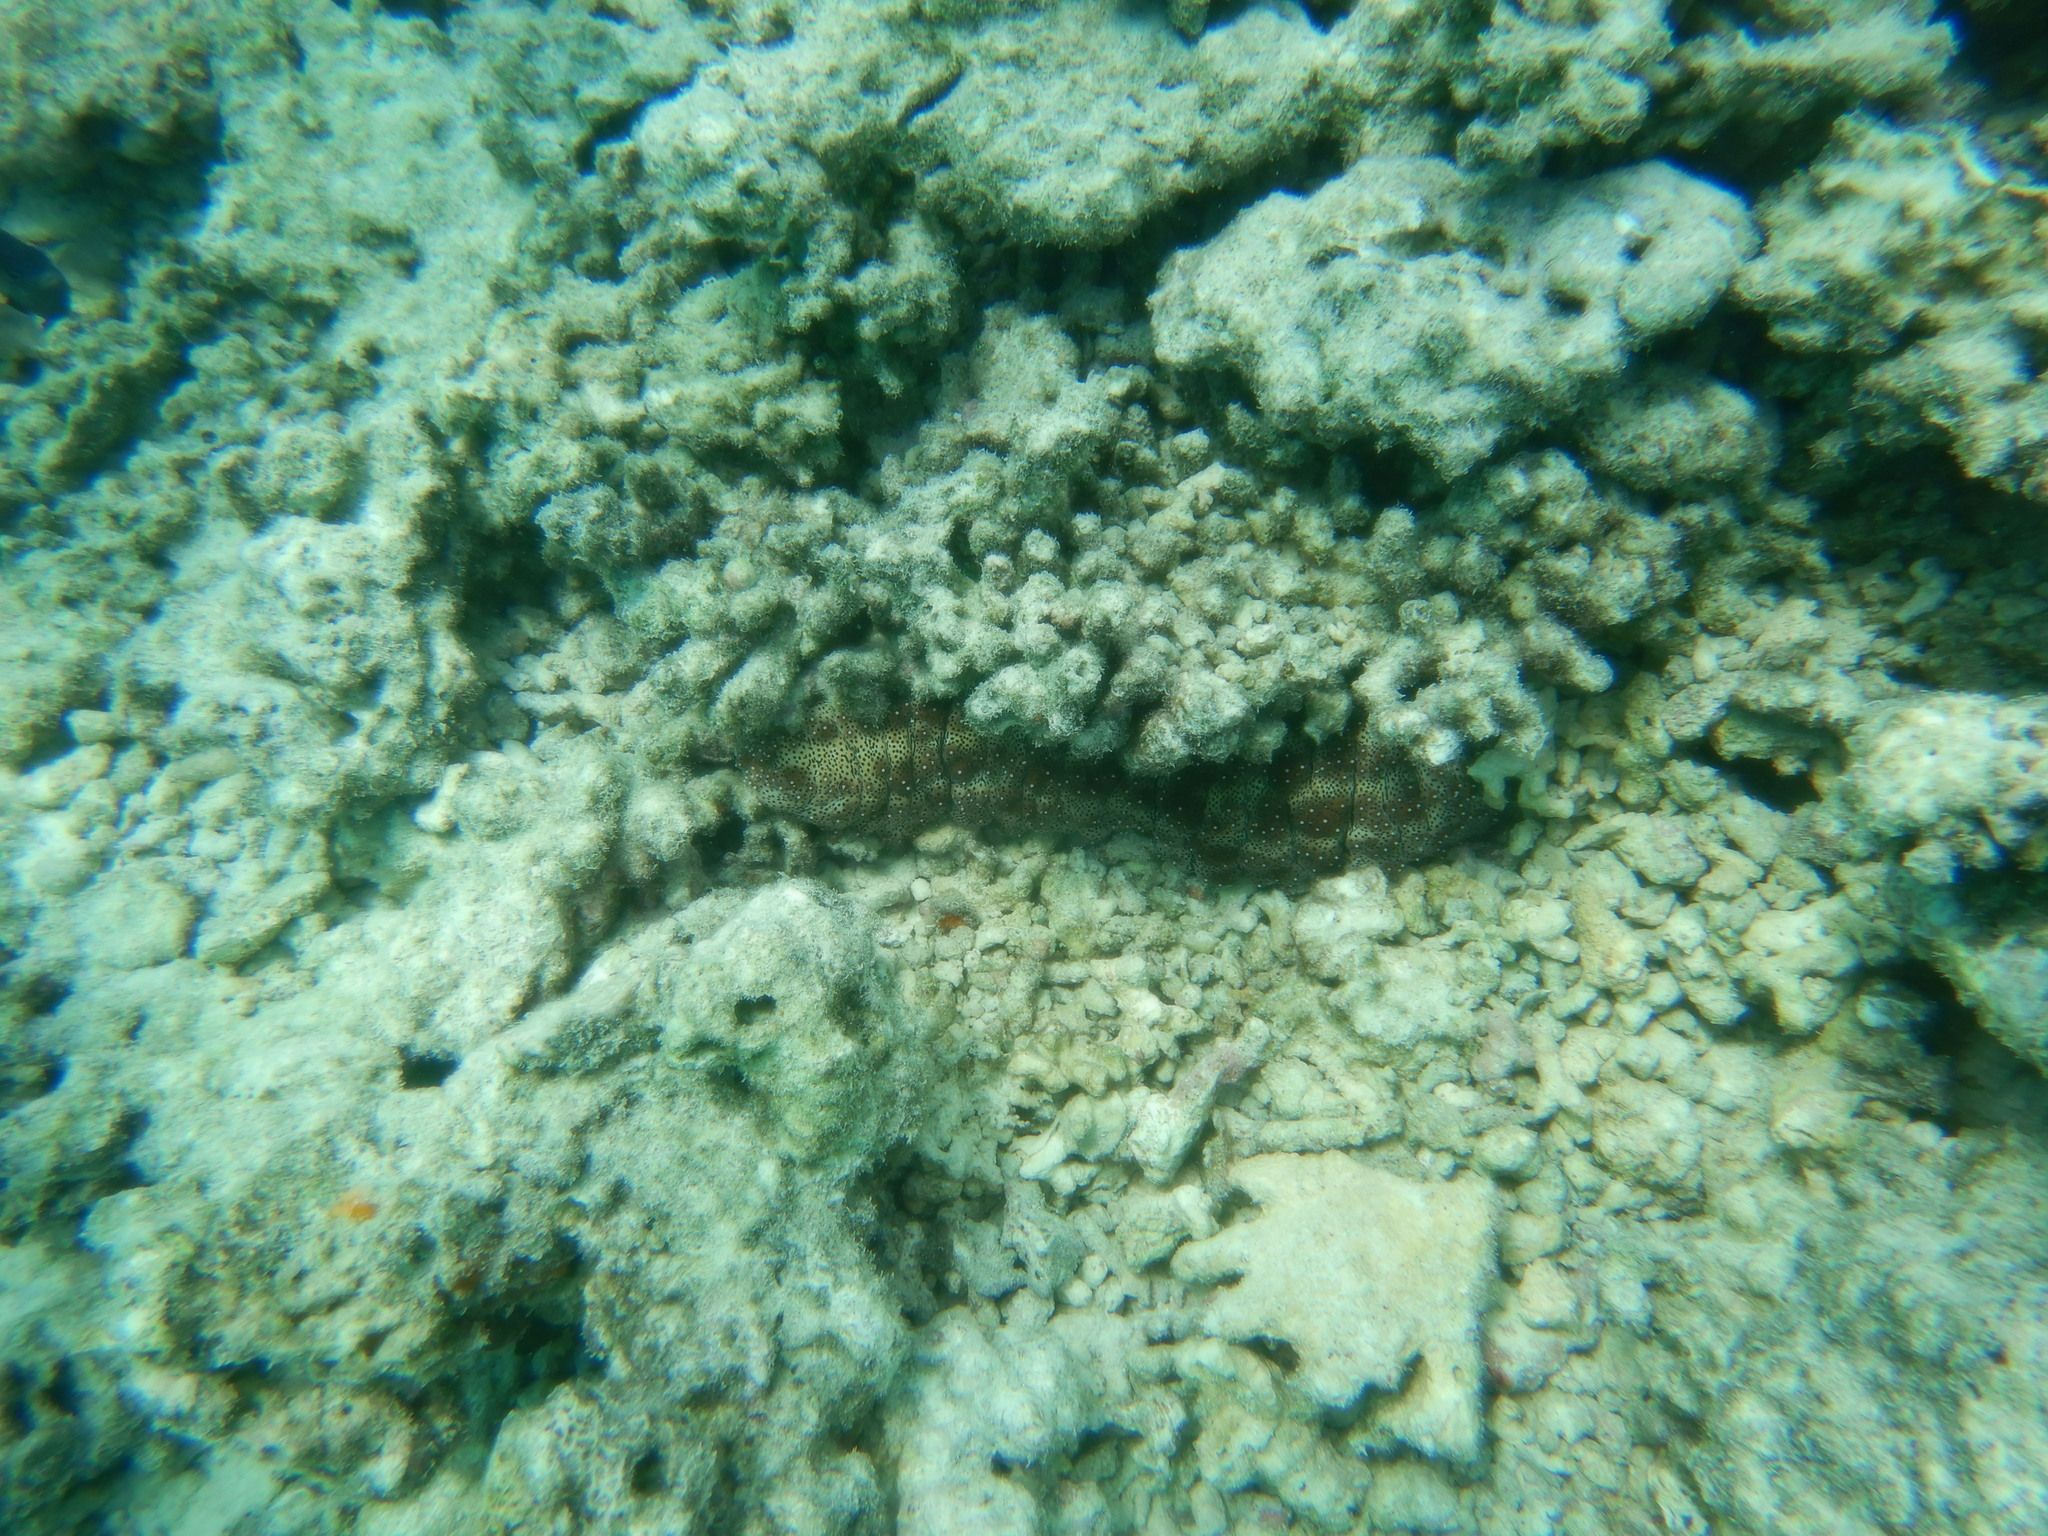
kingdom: Animalia
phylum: Echinodermata
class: Holothuroidea
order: Holothuriida
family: Holothuriidae
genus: Pearsonothuria
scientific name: Pearsonothuria graeffei
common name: Blackspotted sea cucumber
